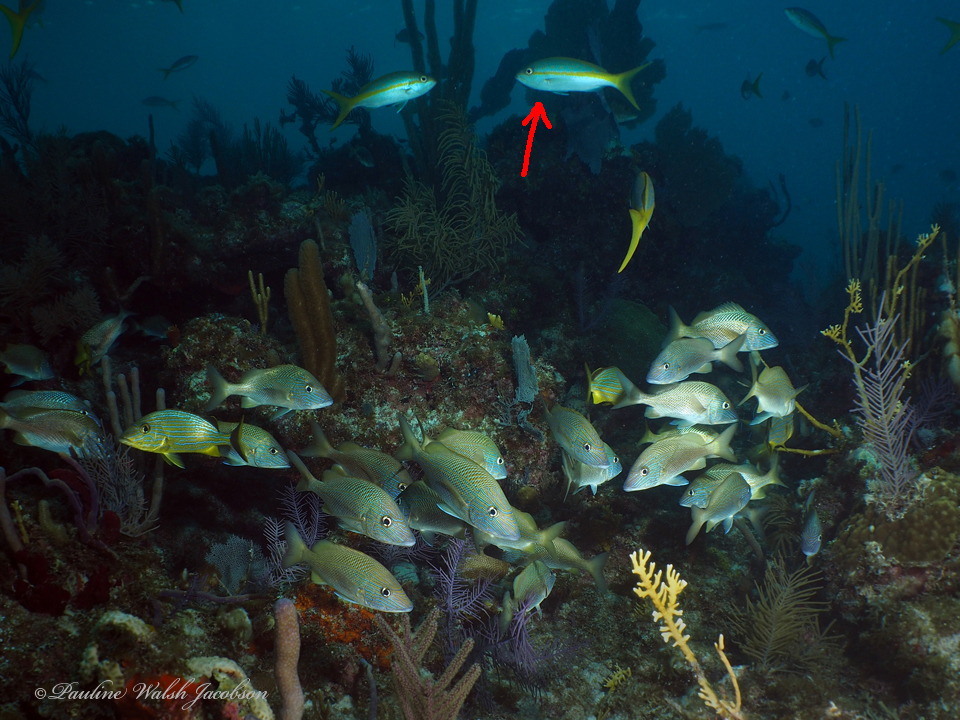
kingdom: Animalia
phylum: Chordata
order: Perciformes
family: Lutjanidae
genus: Ocyurus
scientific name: Ocyurus chrysurus
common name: Yellowtail snapper
